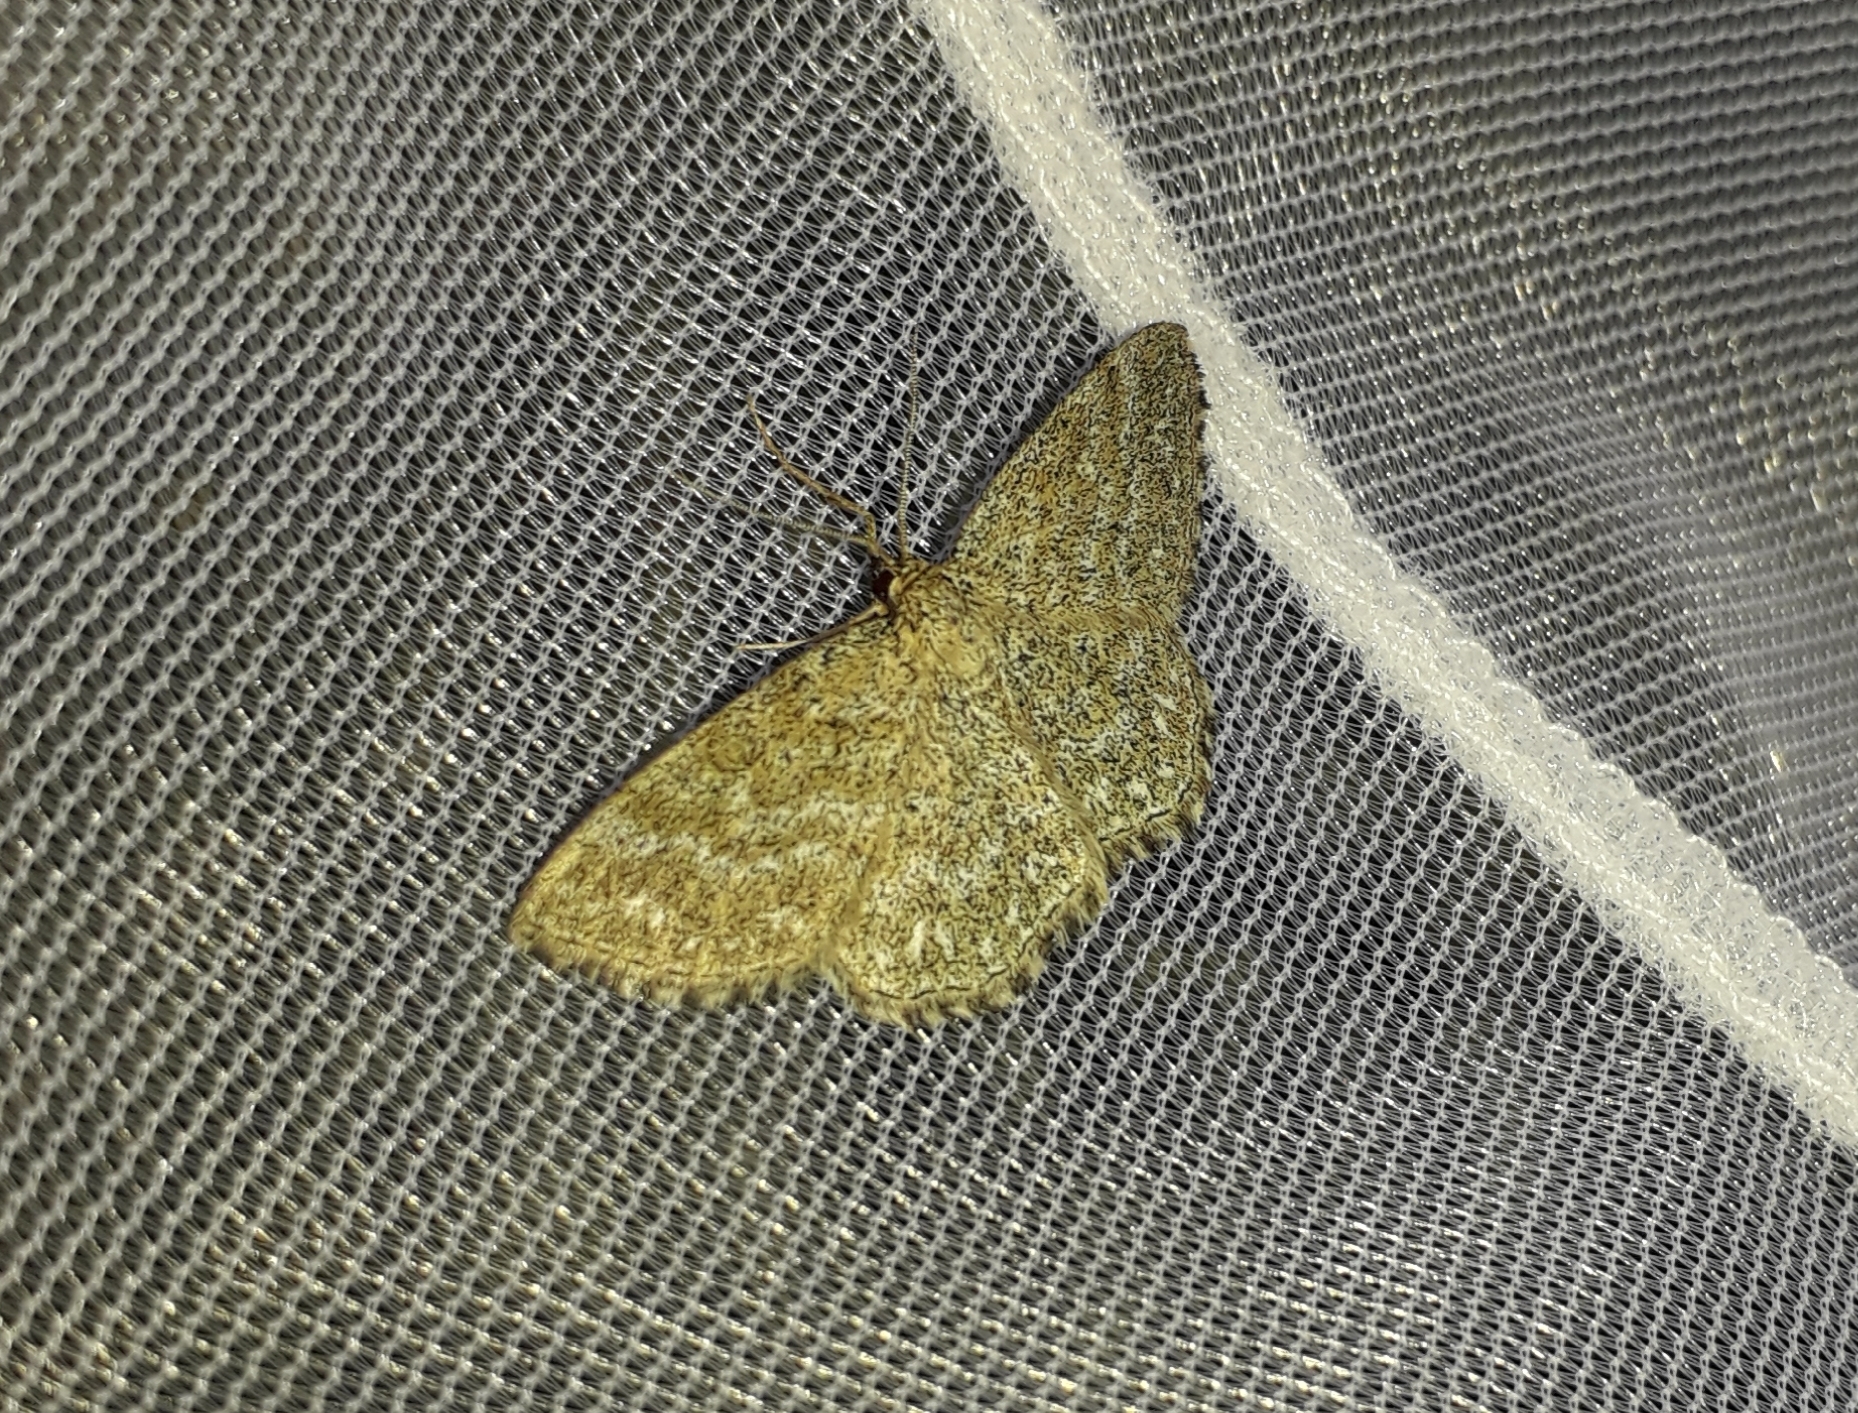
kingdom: Animalia
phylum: Arthropoda
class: Insecta
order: Lepidoptera
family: Geometridae
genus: Scopula
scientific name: Scopula immorata
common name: Lewes wave
